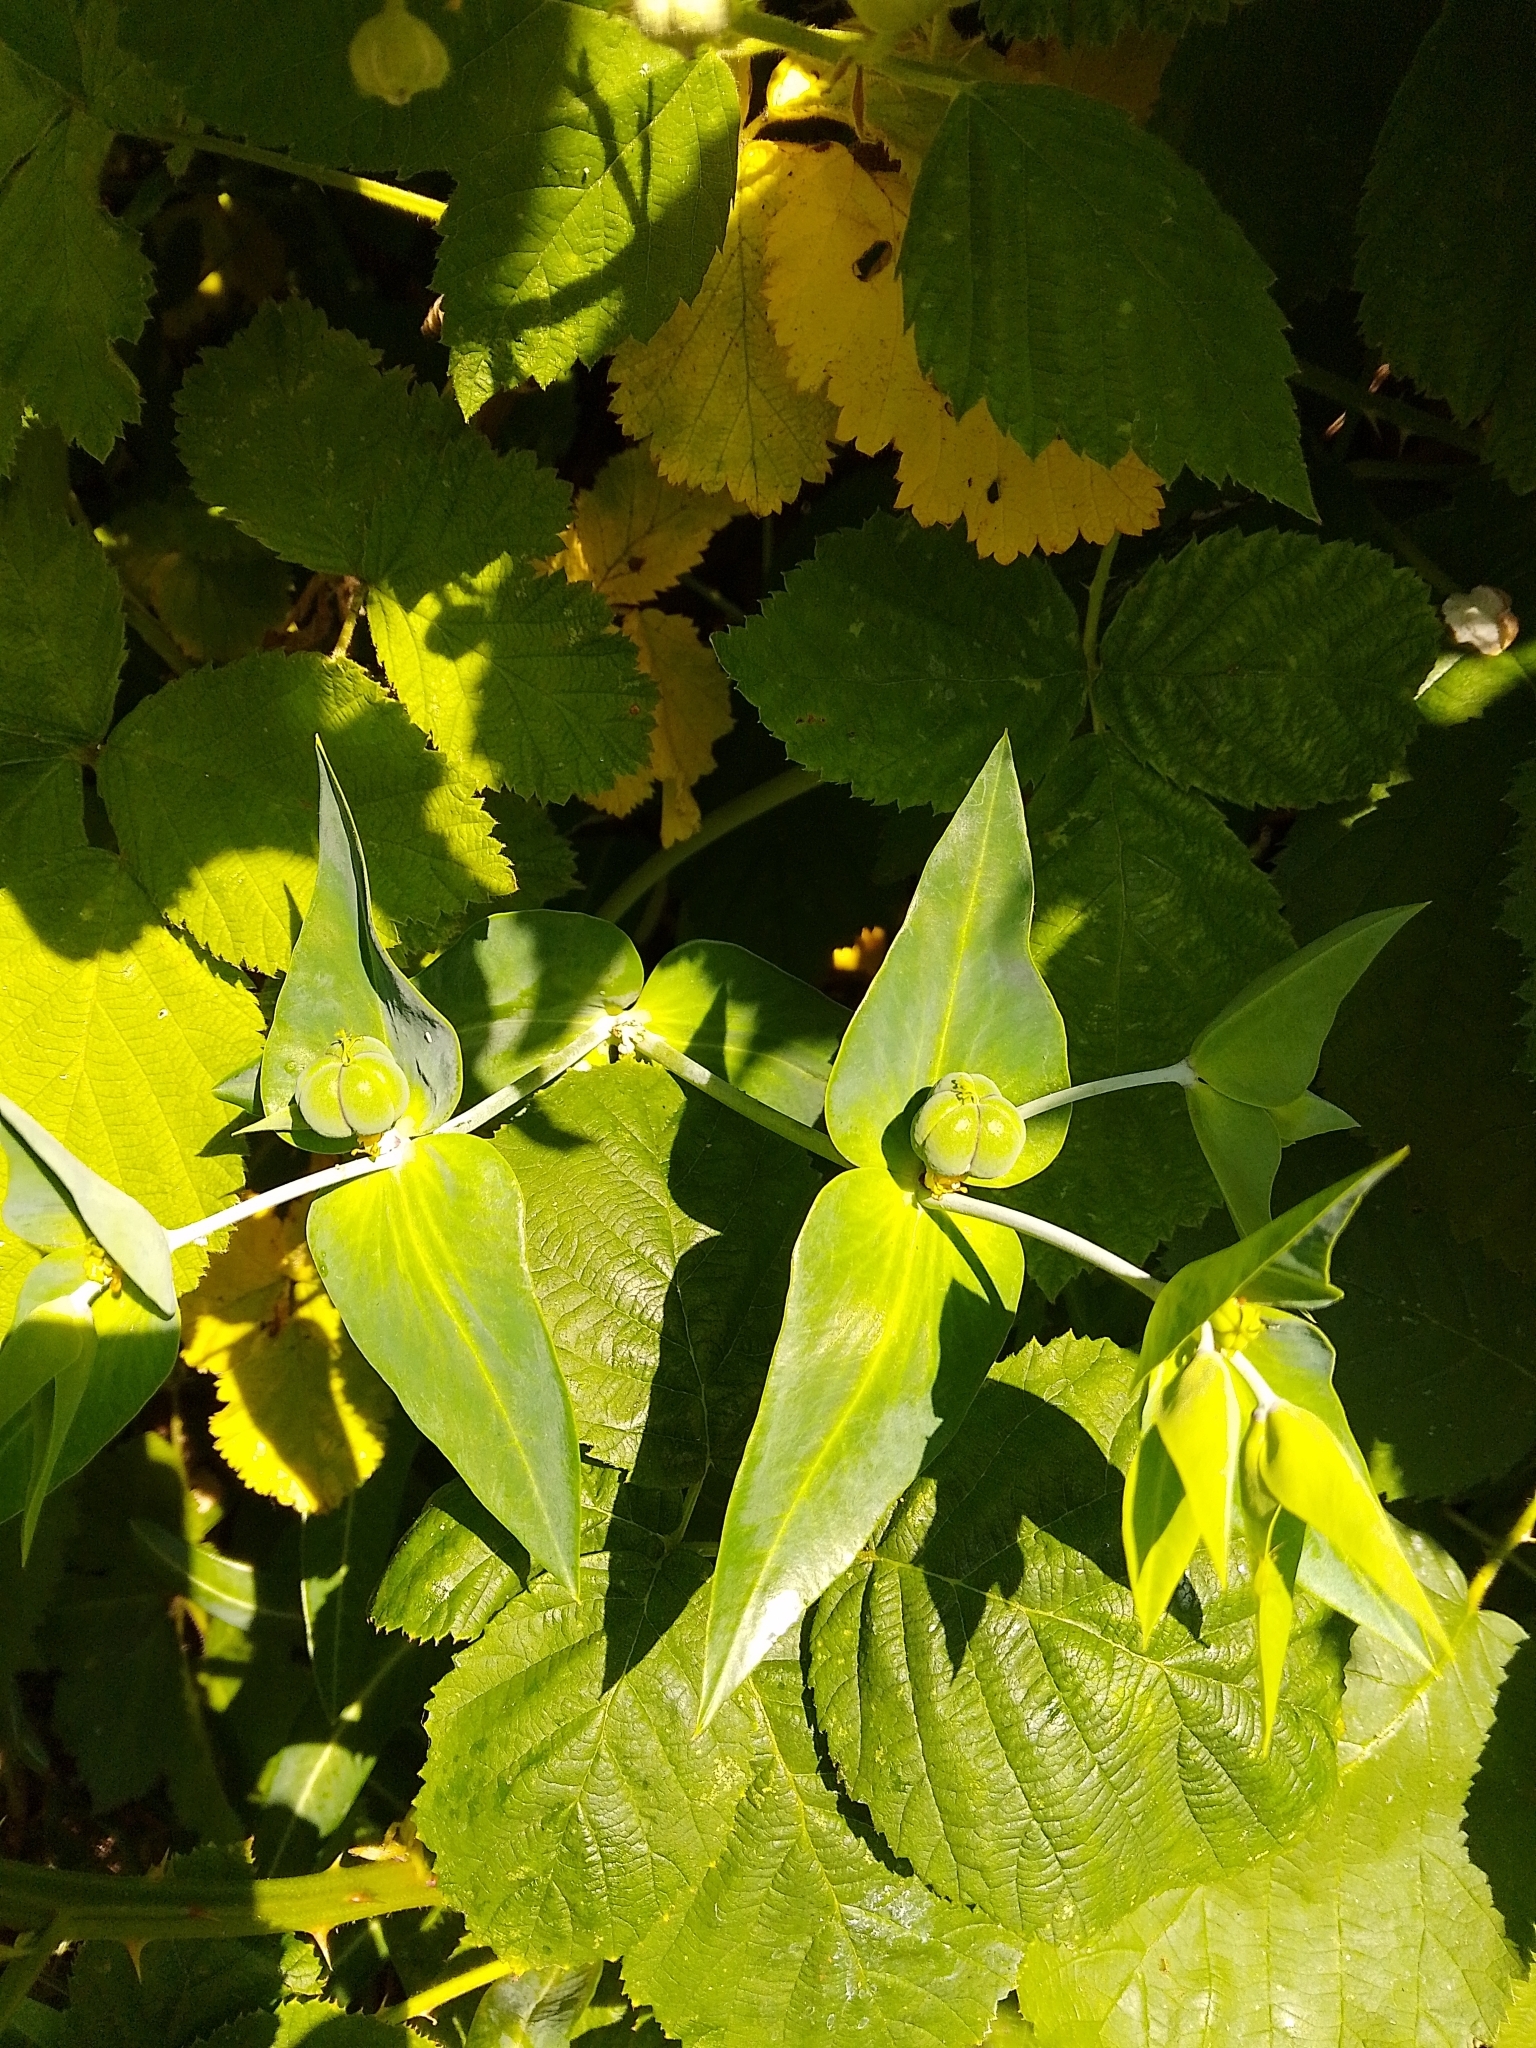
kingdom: Plantae
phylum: Tracheophyta
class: Magnoliopsida
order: Malpighiales
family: Euphorbiaceae
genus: Euphorbia
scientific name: Euphorbia lathyris
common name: Caper spurge
